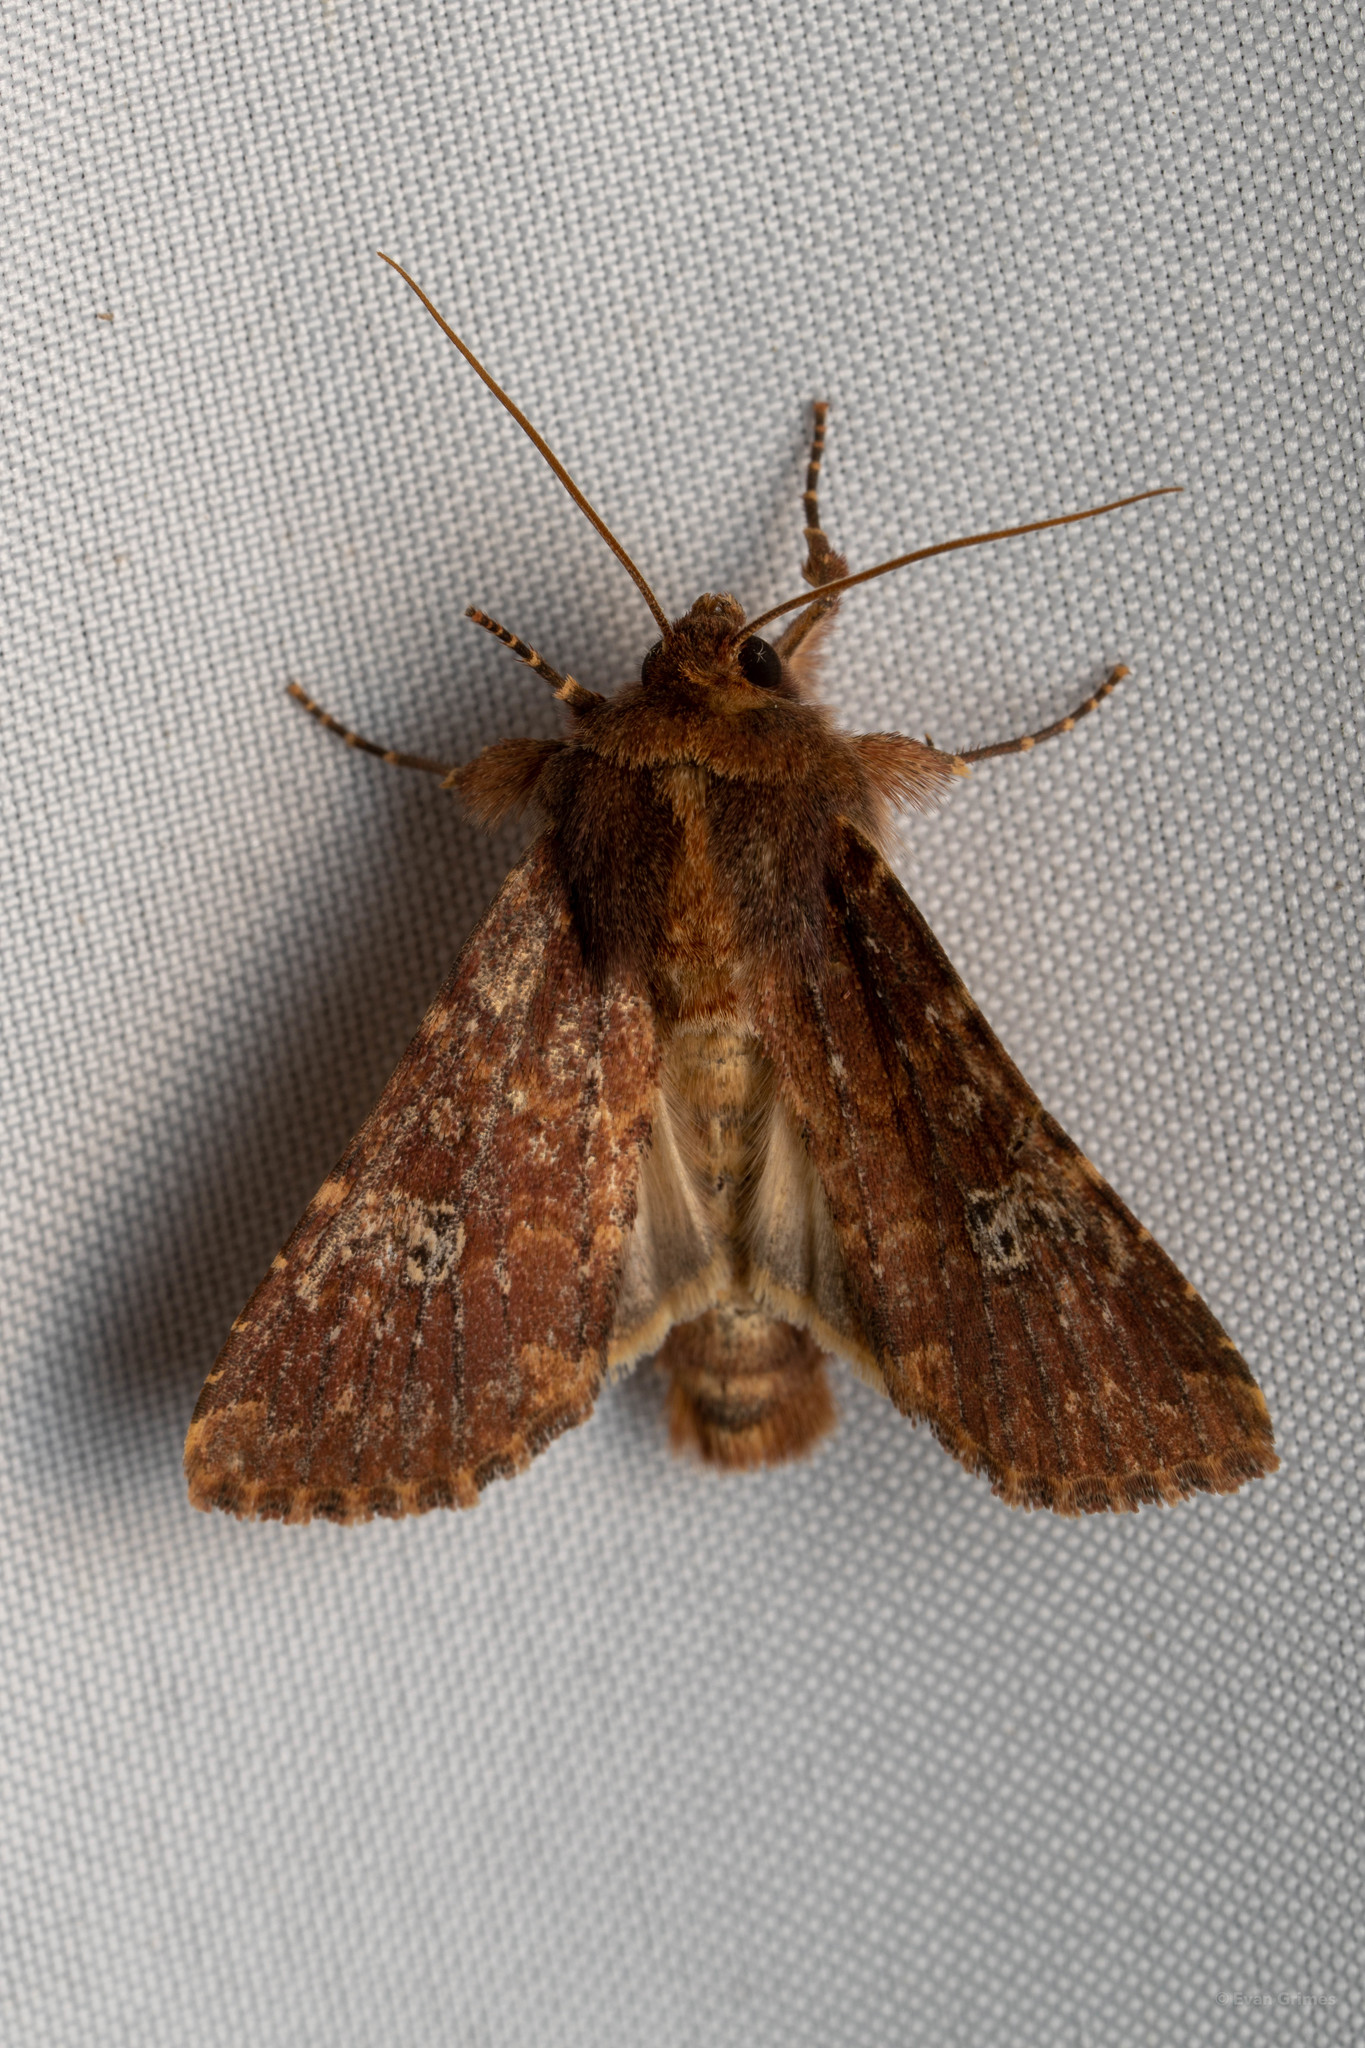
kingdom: Animalia
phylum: Arthropoda
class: Insecta
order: Lepidoptera
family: Noctuidae
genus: Sideridis
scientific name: Sideridis congermana
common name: German cousin moth
